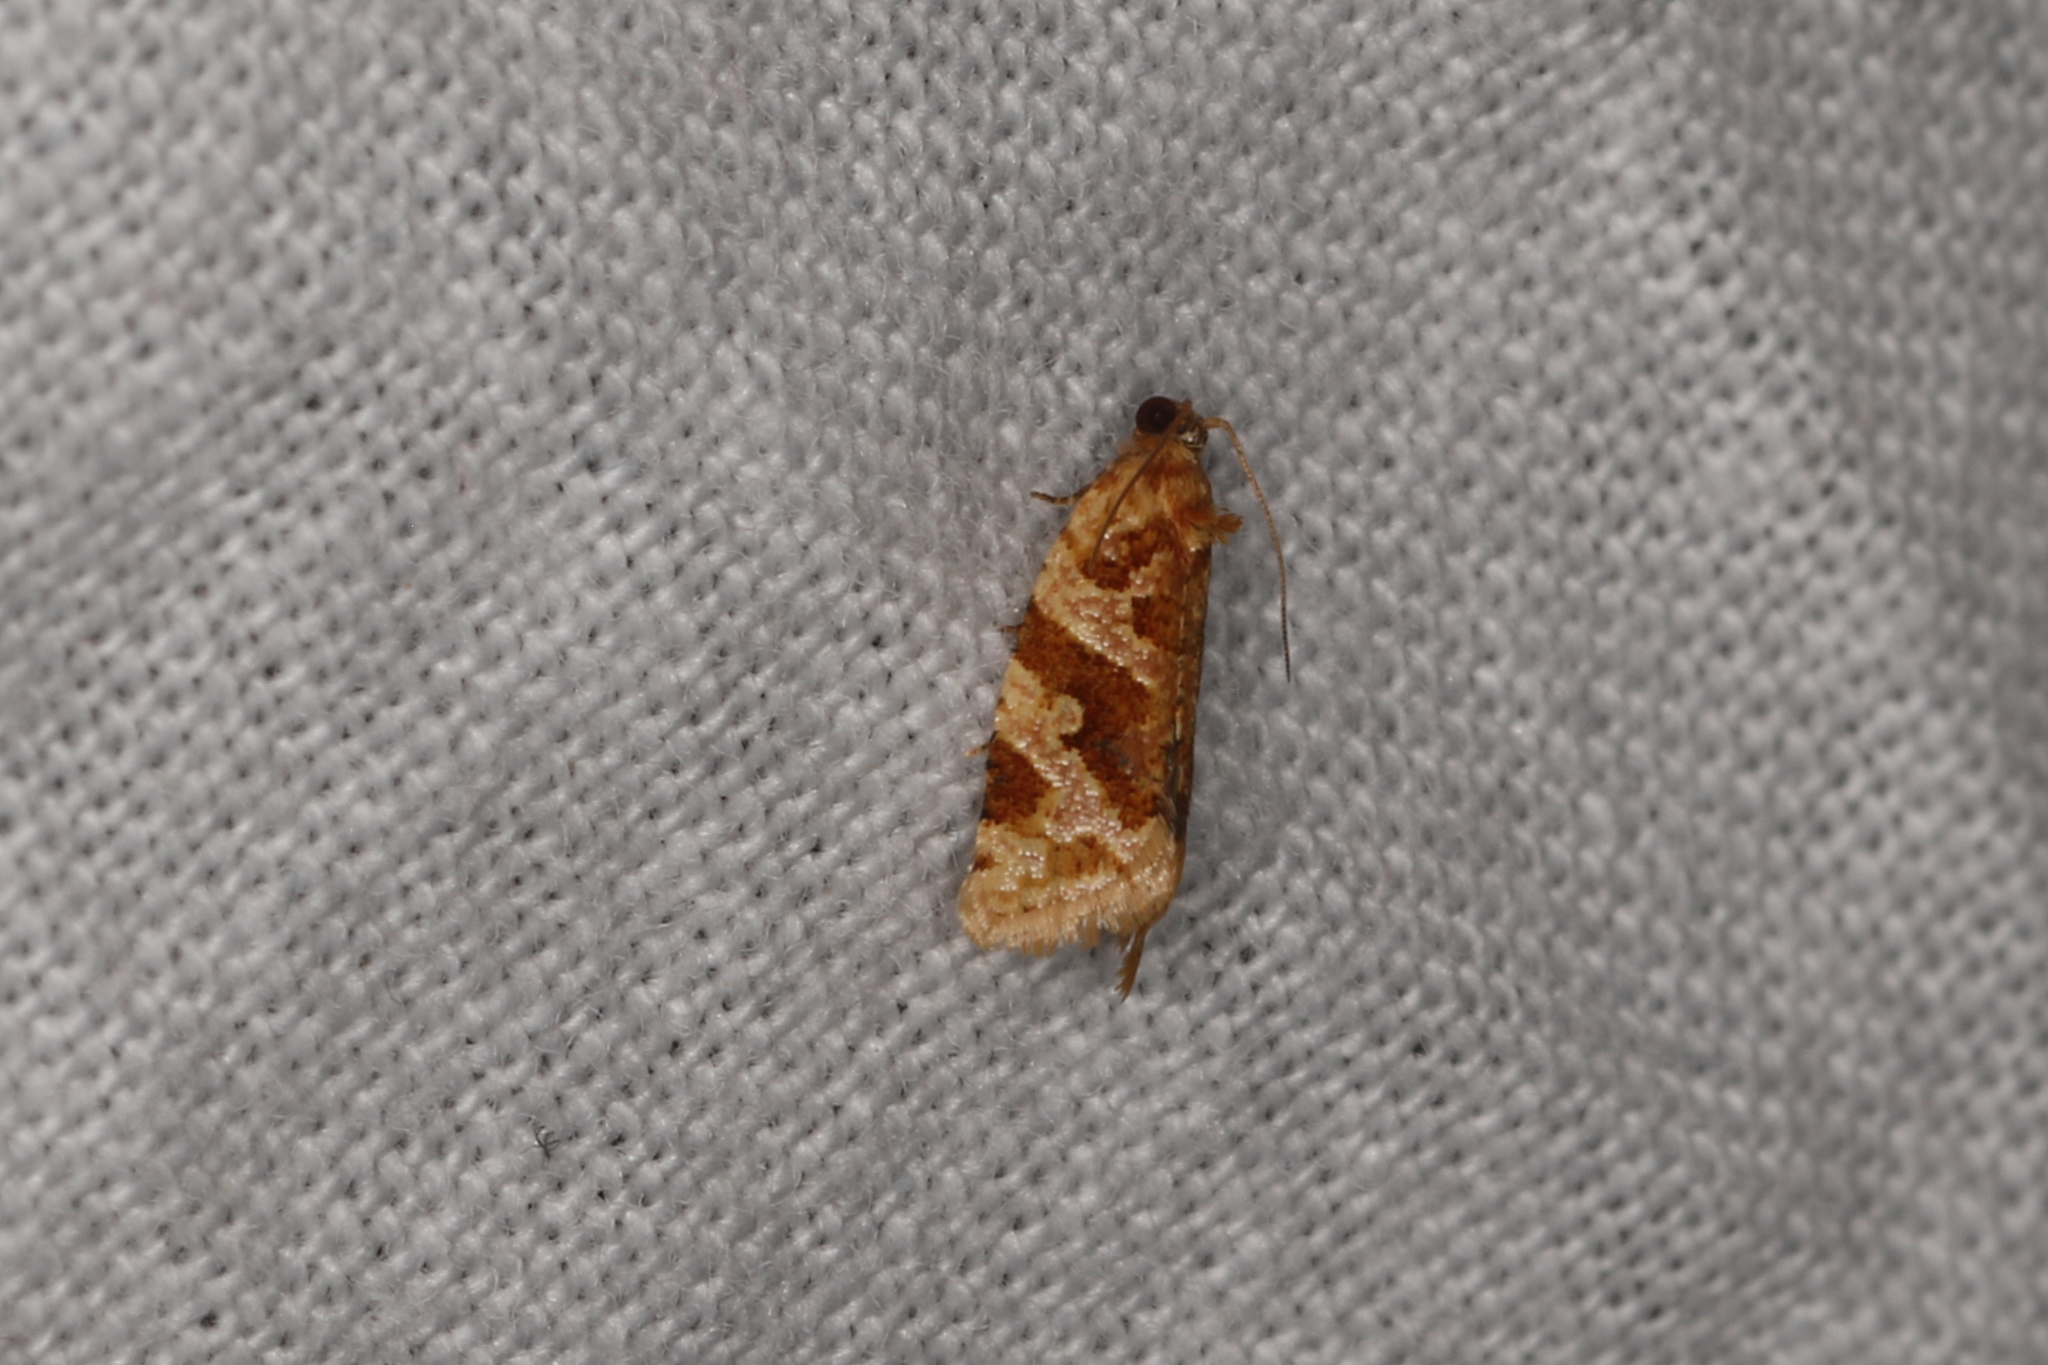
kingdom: Animalia
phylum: Arthropoda
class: Insecta
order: Lepidoptera
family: Tortricidae
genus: Epitymbia
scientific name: Epitymbia eudrosa
